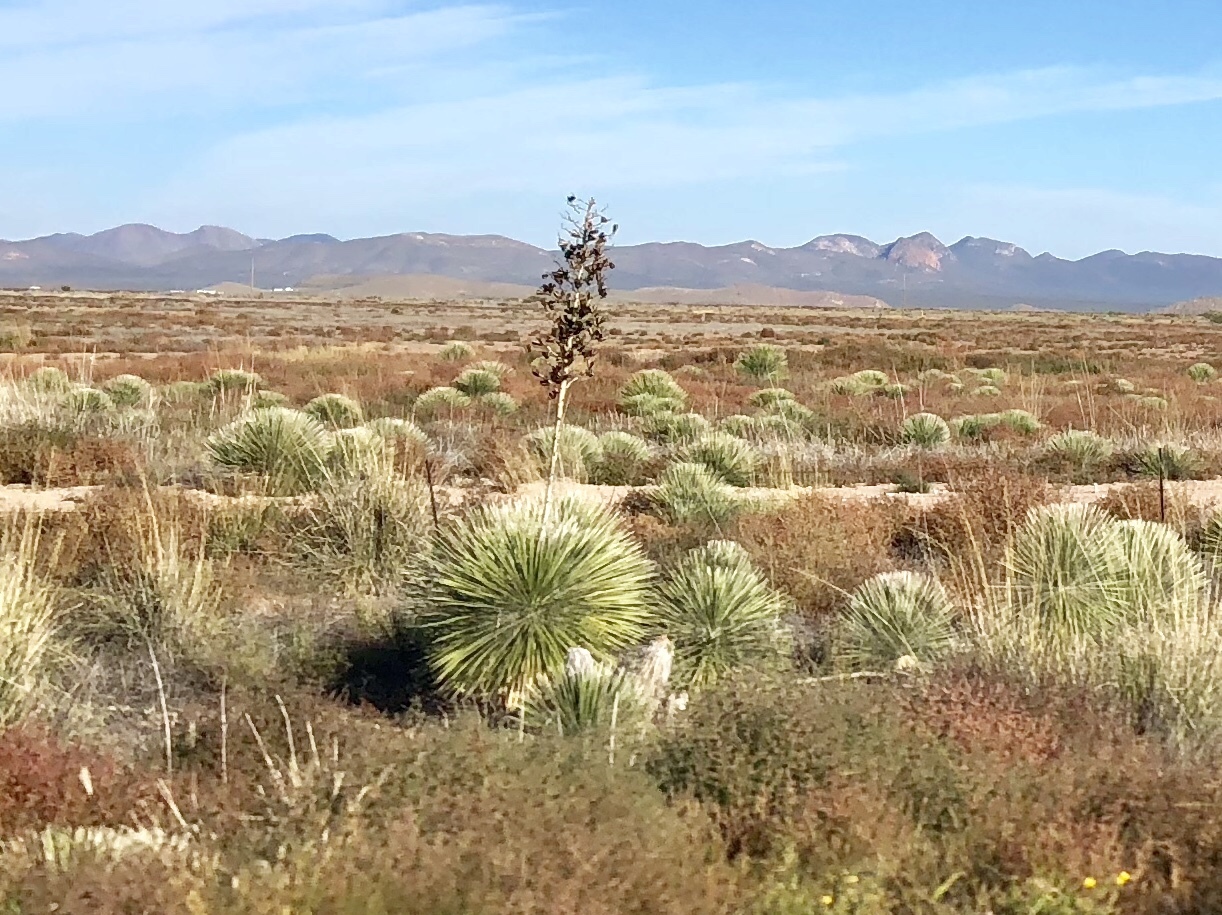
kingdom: Plantae
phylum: Tracheophyta
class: Liliopsida
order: Asparagales
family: Asparagaceae
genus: Yucca
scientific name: Yucca elata
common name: Palmella
